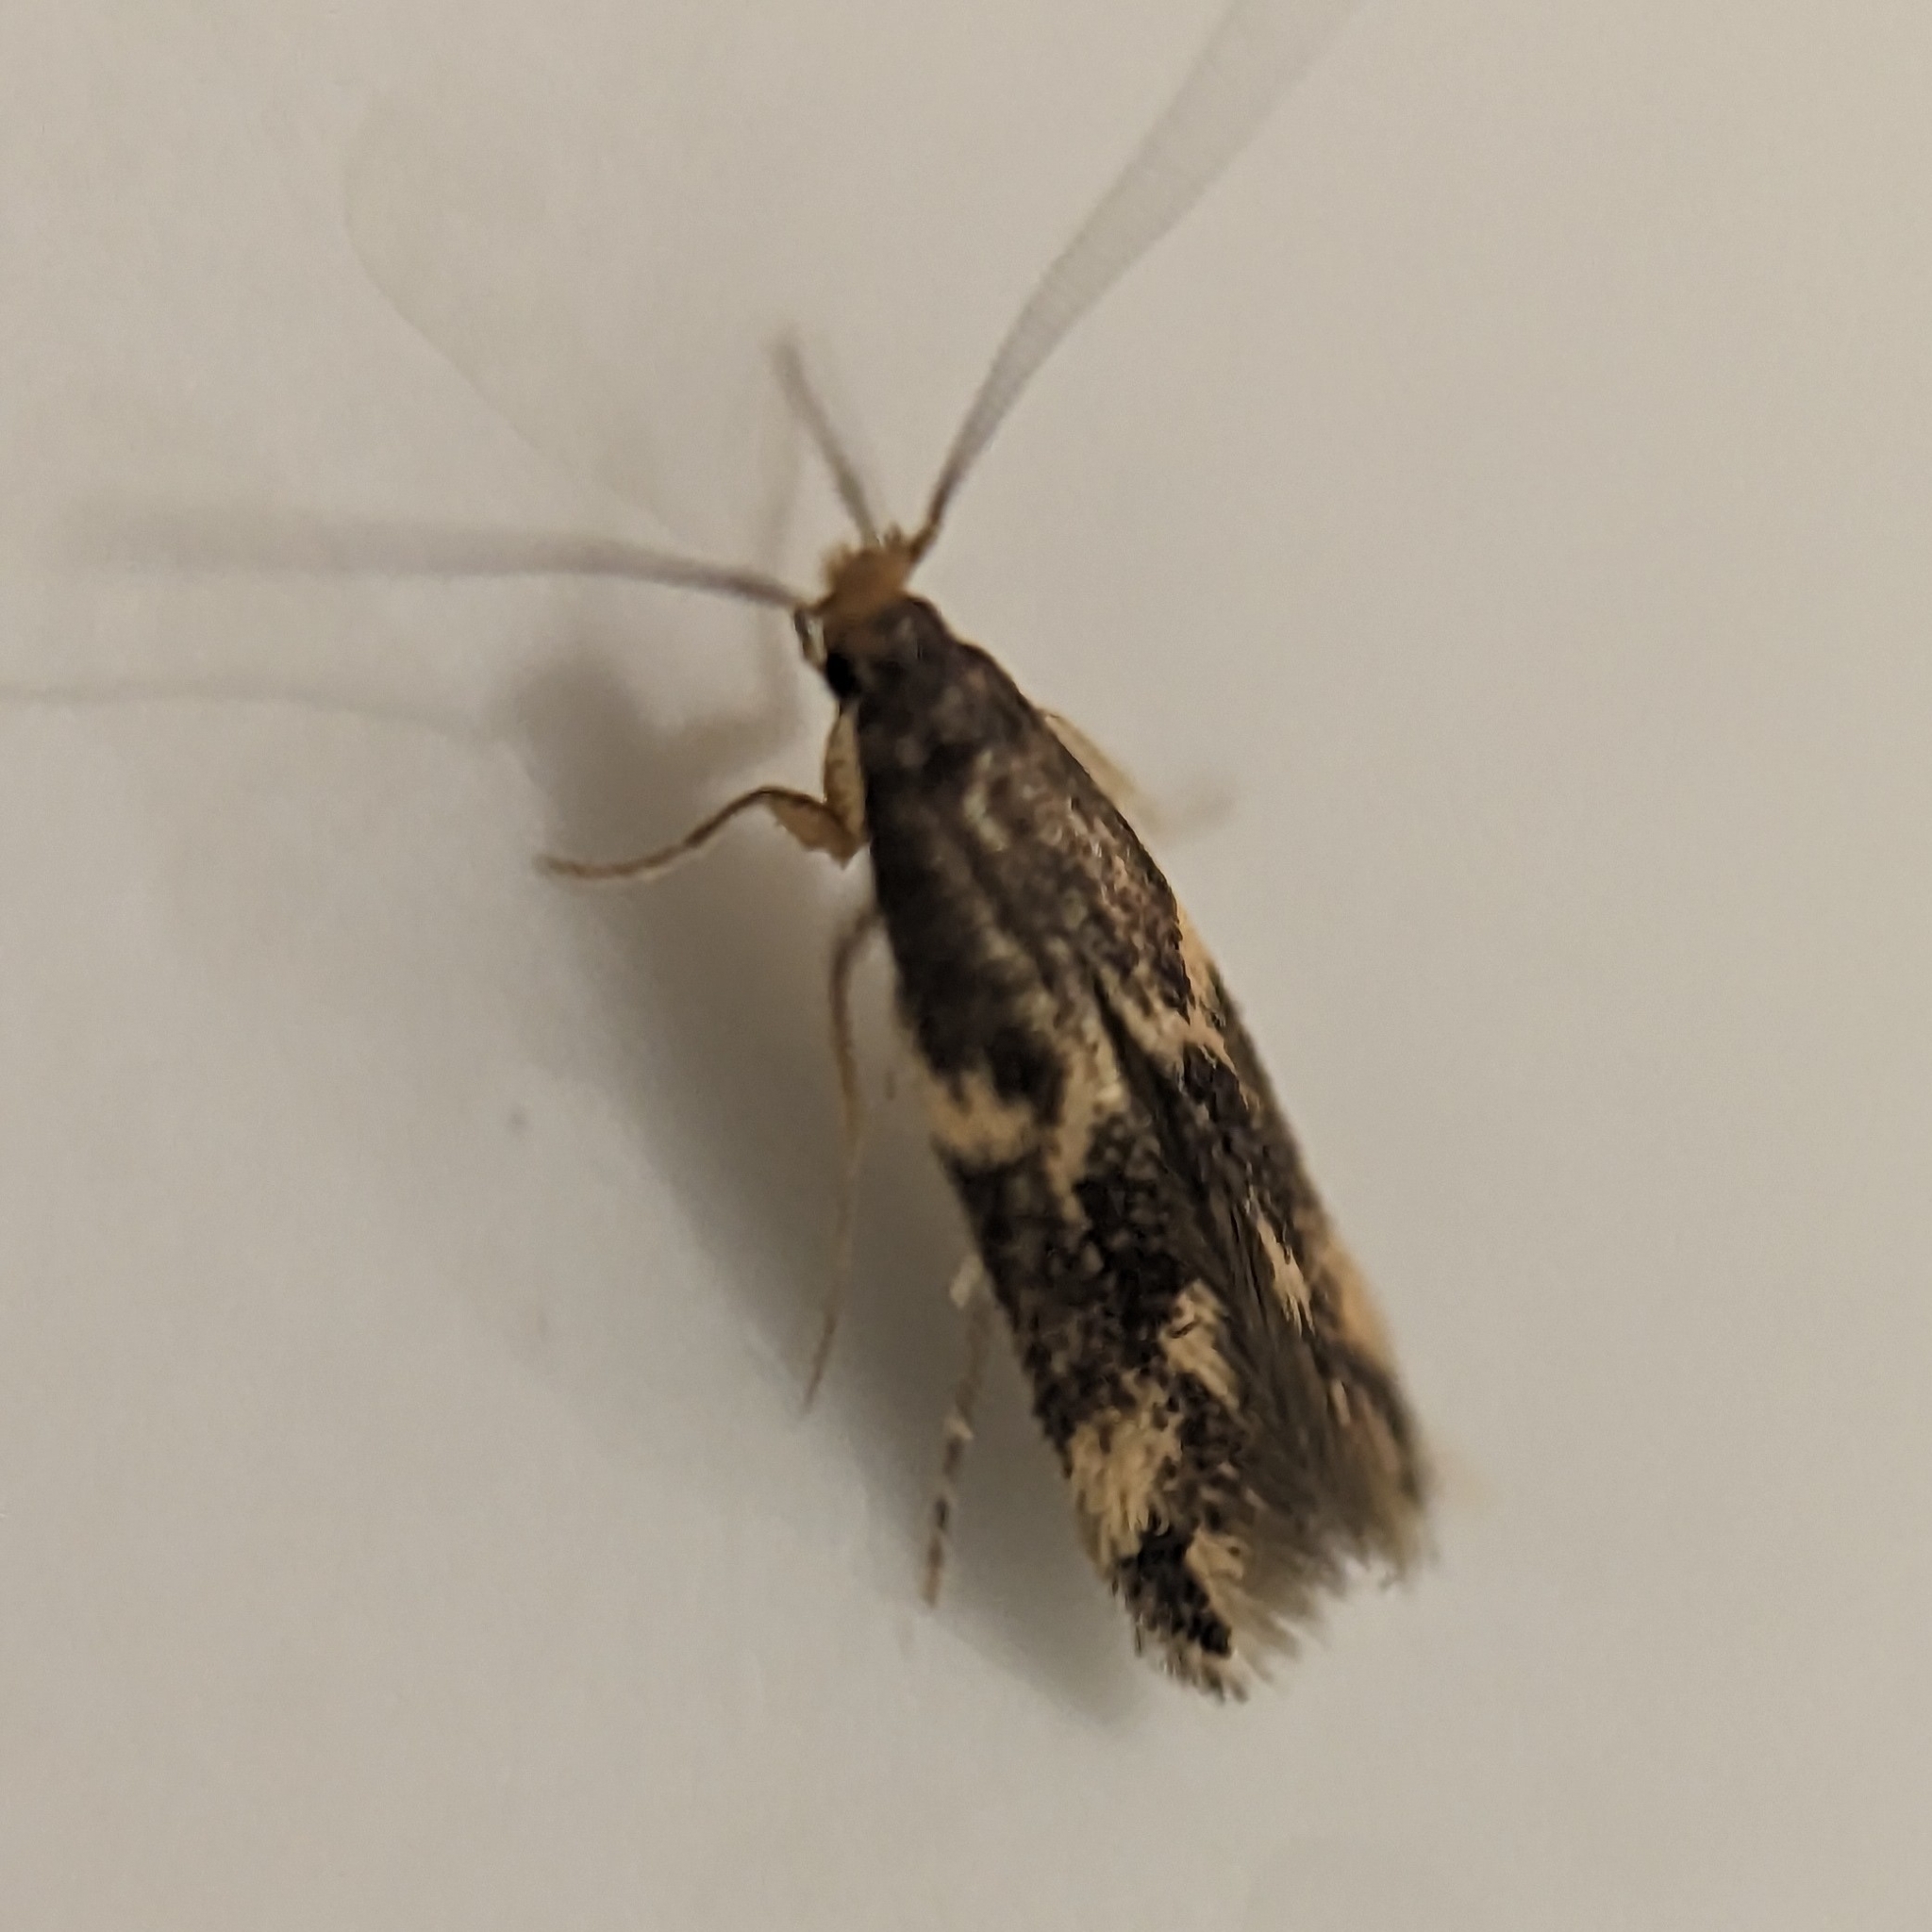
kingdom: Animalia
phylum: Arthropoda
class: Insecta
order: Lepidoptera
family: Tineidae
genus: Oinophila
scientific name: Oinophila v-flava
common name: Yellow v moth
